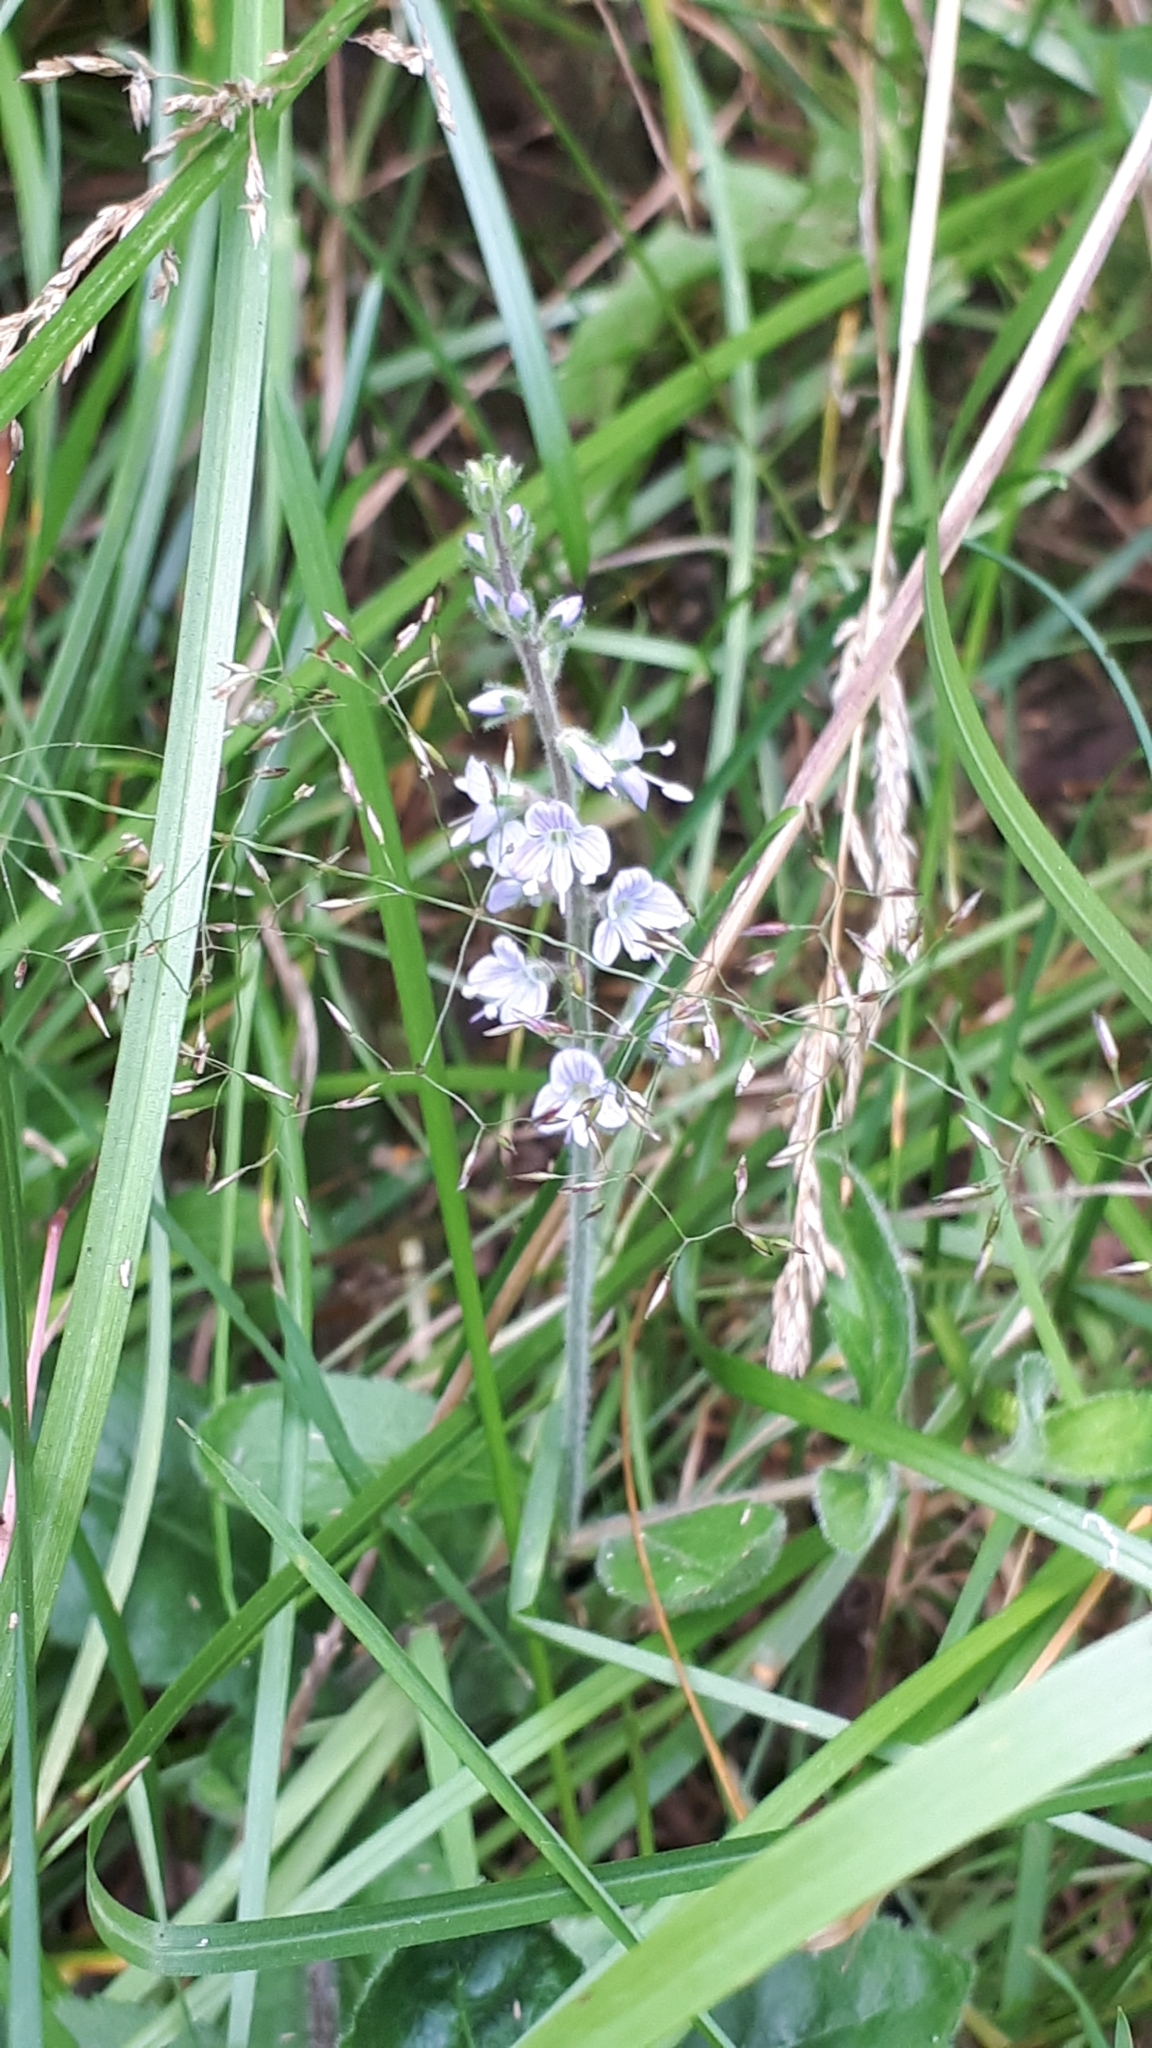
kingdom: Plantae
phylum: Tracheophyta
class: Magnoliopsida
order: Lamiales
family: Plantaginaceae
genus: Veronica
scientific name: Veronica officinalis
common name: Common speedwell
